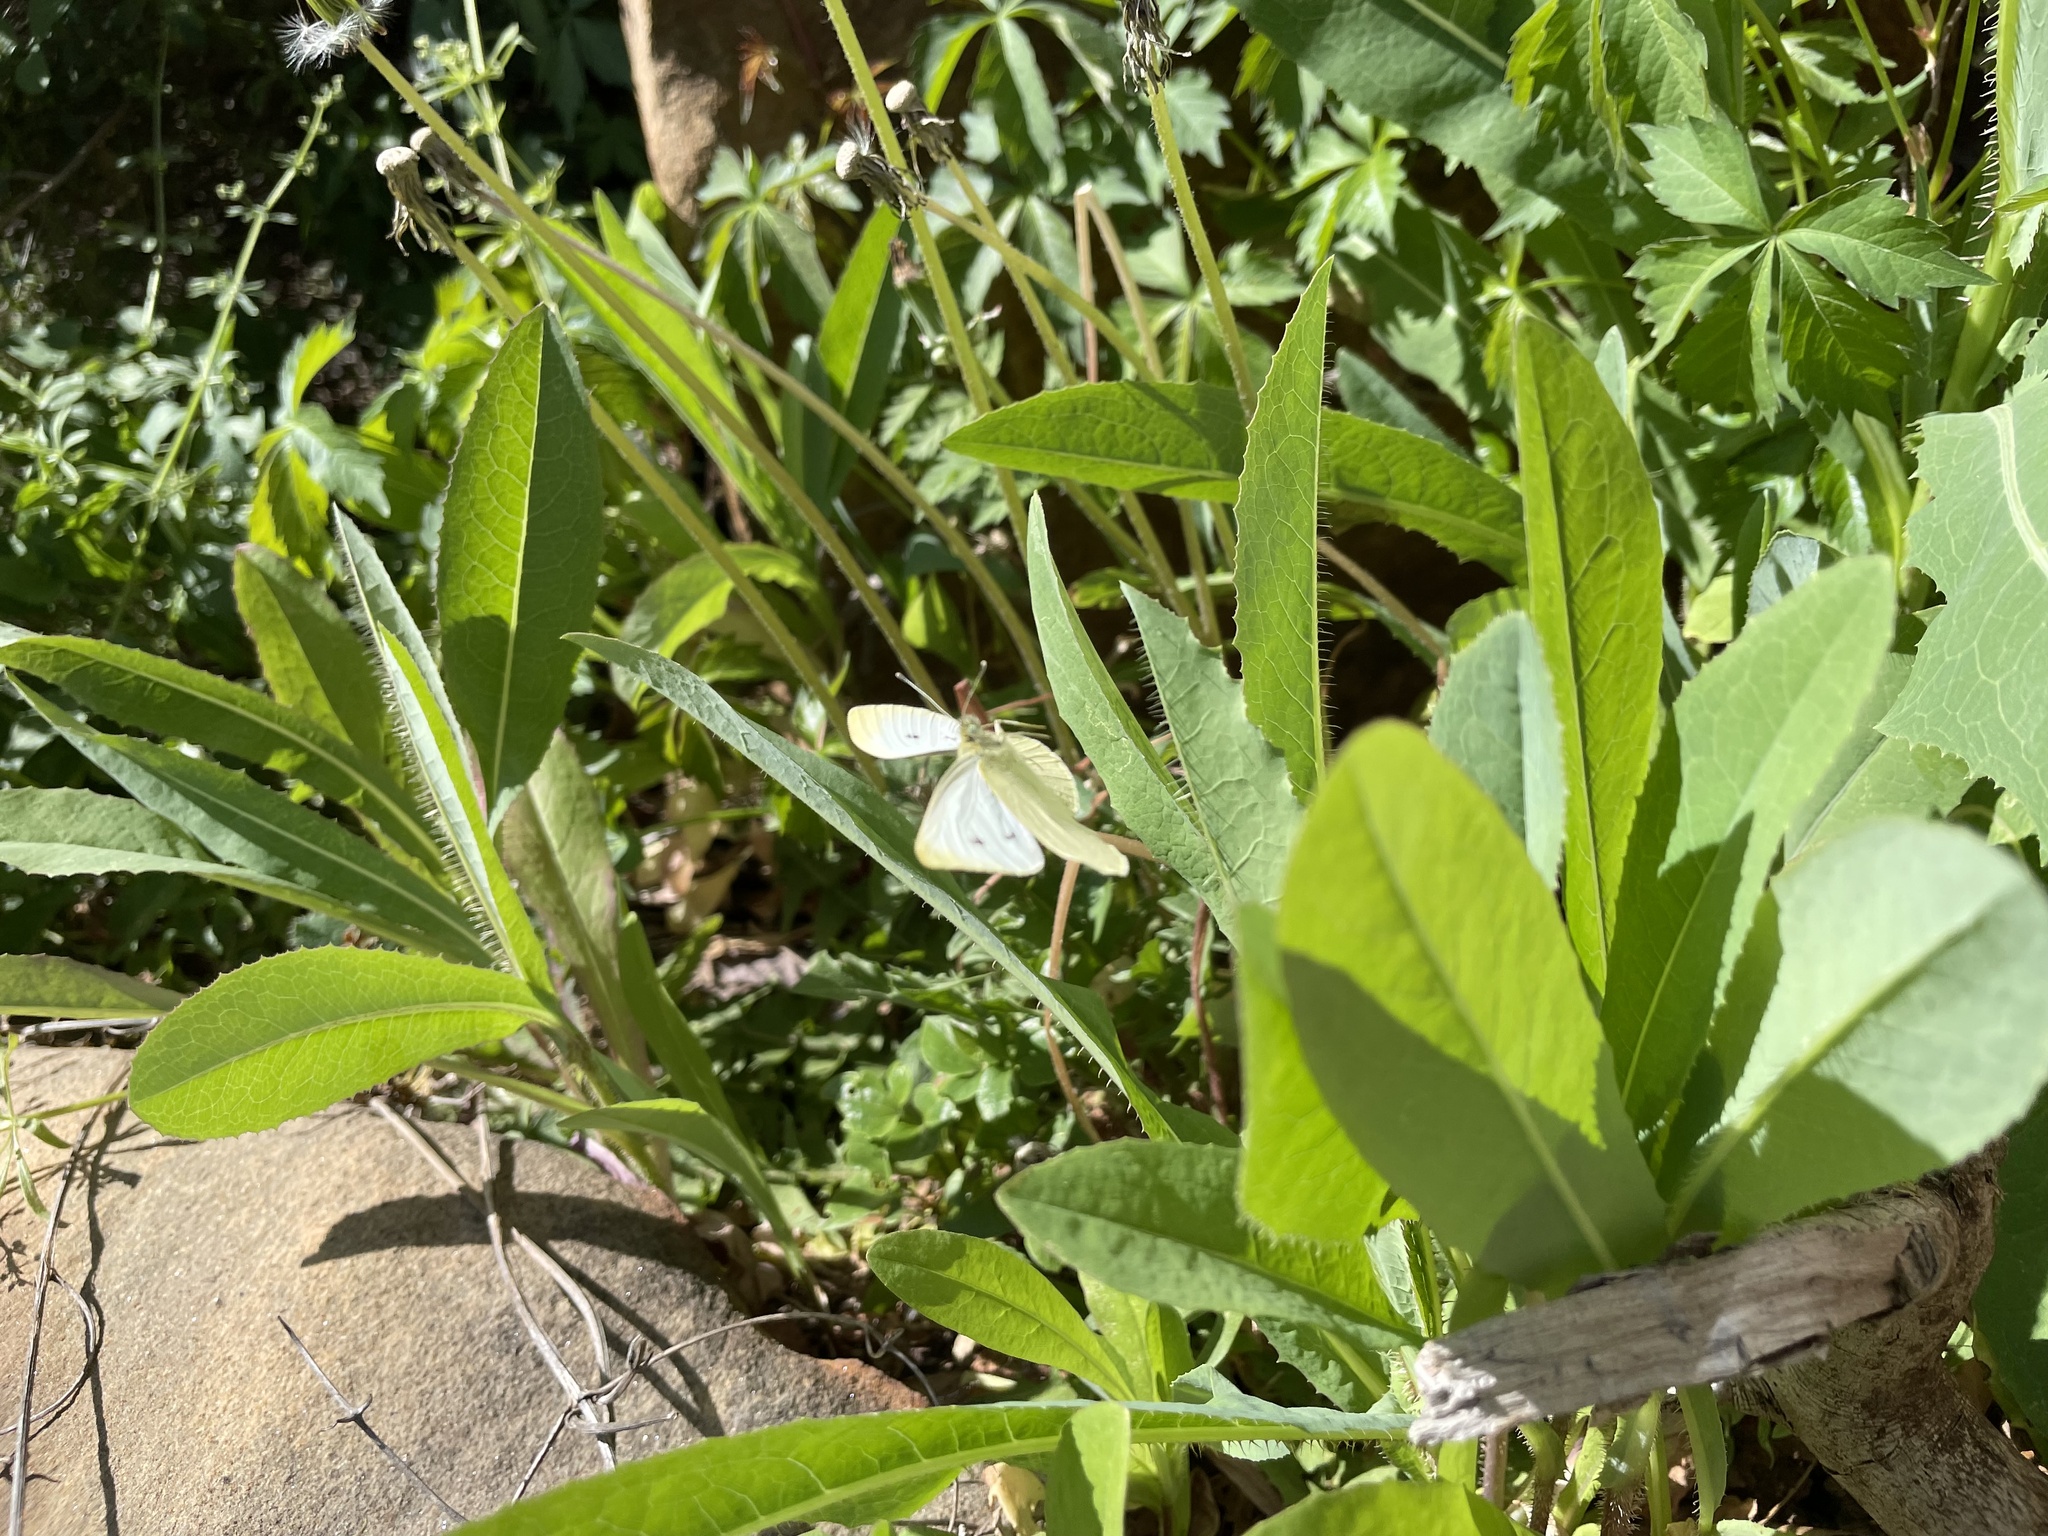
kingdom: Animalia
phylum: Arthropoda
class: Insecta
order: Lepidoptera
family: Pieridae
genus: Pieris
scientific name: Pieris rapae
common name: Small white
